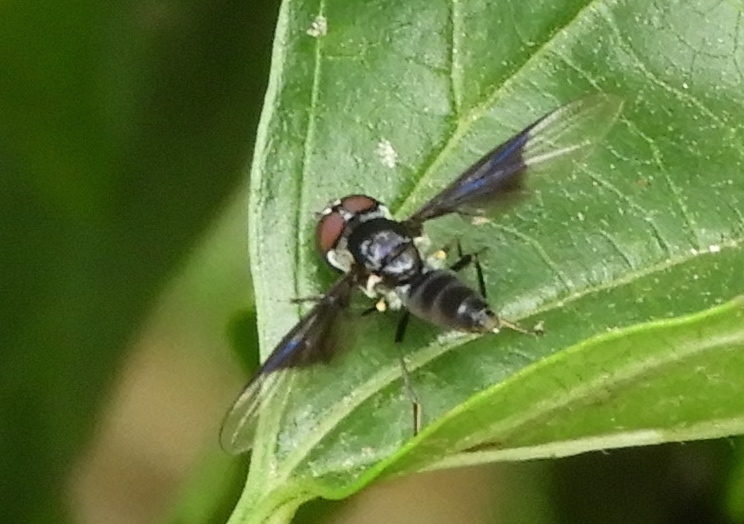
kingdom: Animalia
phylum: Arthropoda
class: Insecta
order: Diptera
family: Syrphidae
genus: Ocyptamus
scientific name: Ocyptamus
